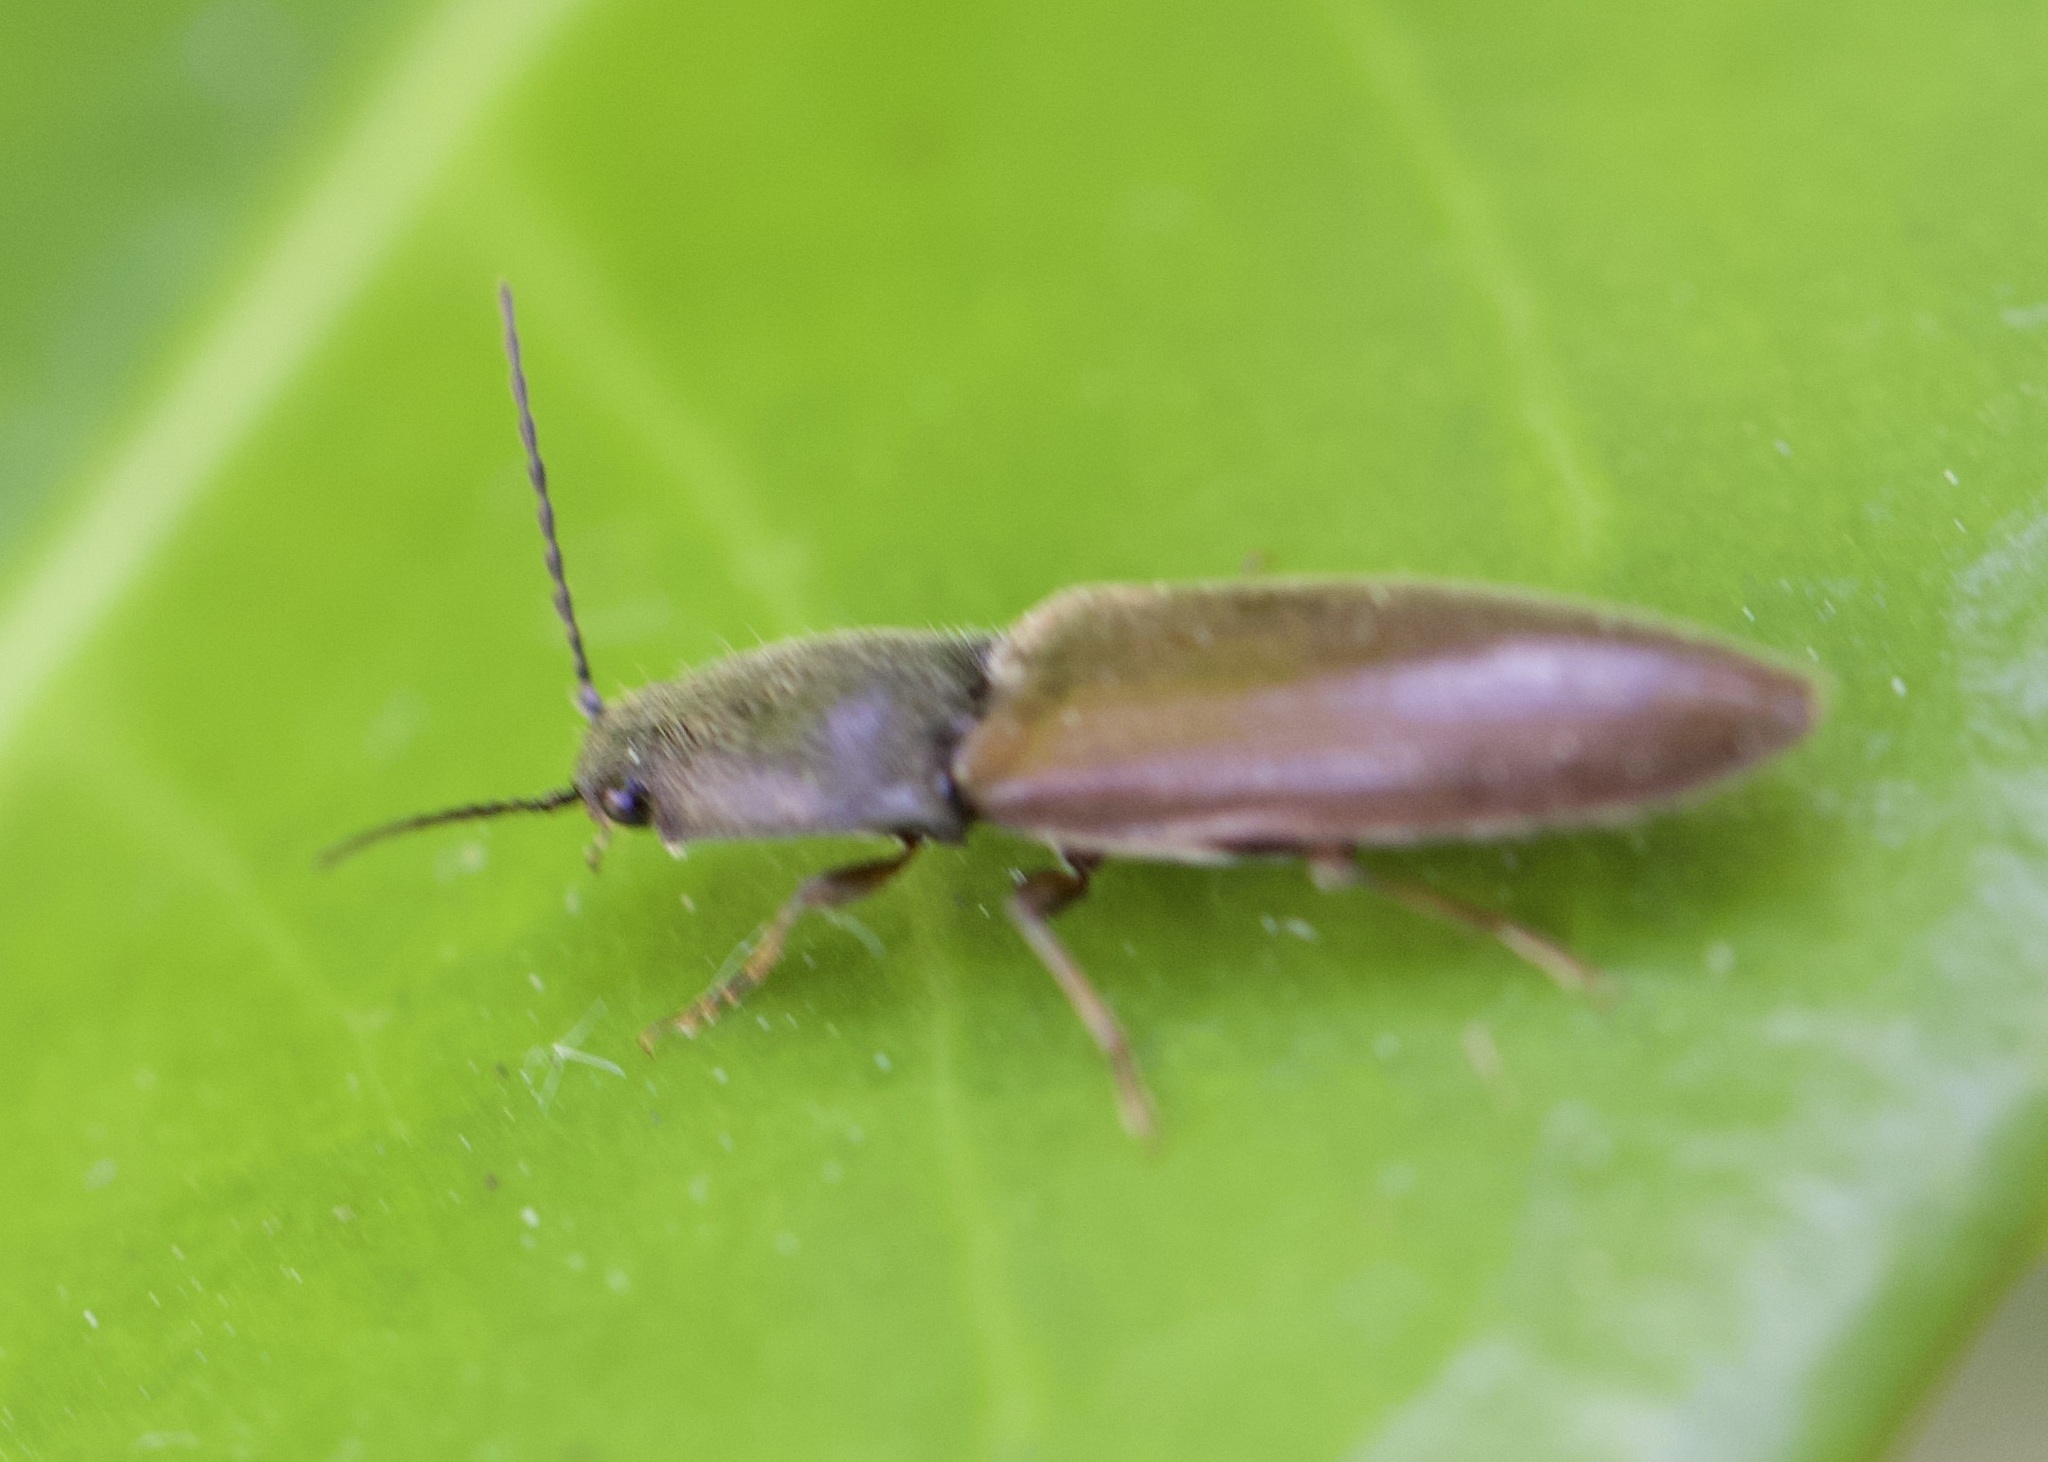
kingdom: Animalia
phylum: Arthropoda
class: Insecta
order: Coleoptera
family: Elateridae
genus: Athous
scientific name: Athous haemorrhoidalis
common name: Red-brown click beetle
